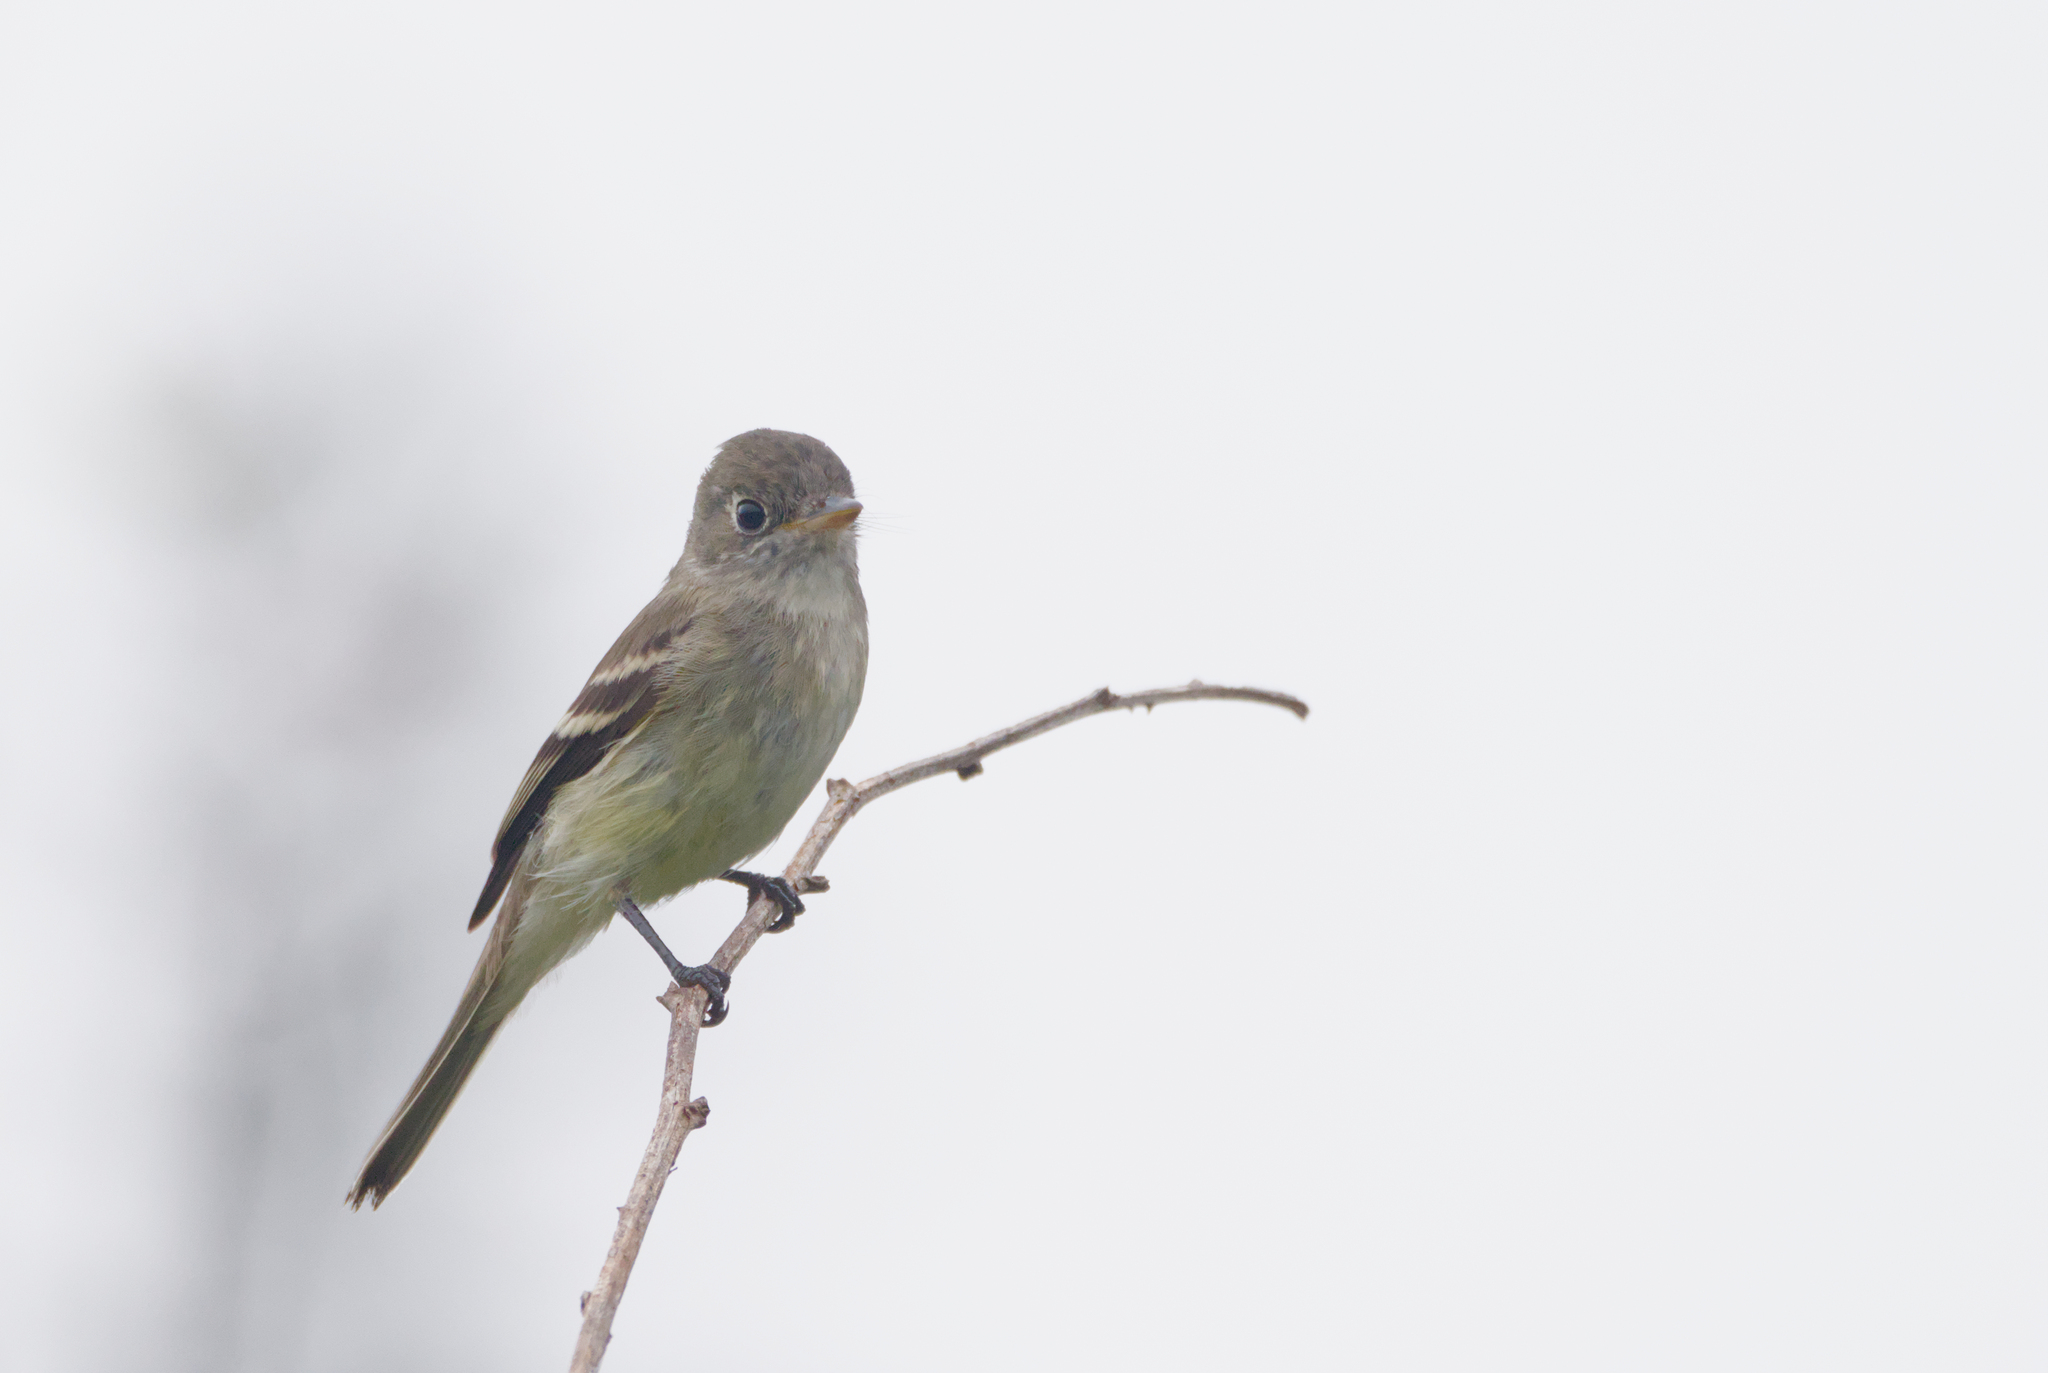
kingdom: Animalia
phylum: Chordata
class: Aves
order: Passeriformes
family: Tyrannidae
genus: Empidonax
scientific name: Empidonax minimus
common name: Least flycatcher
